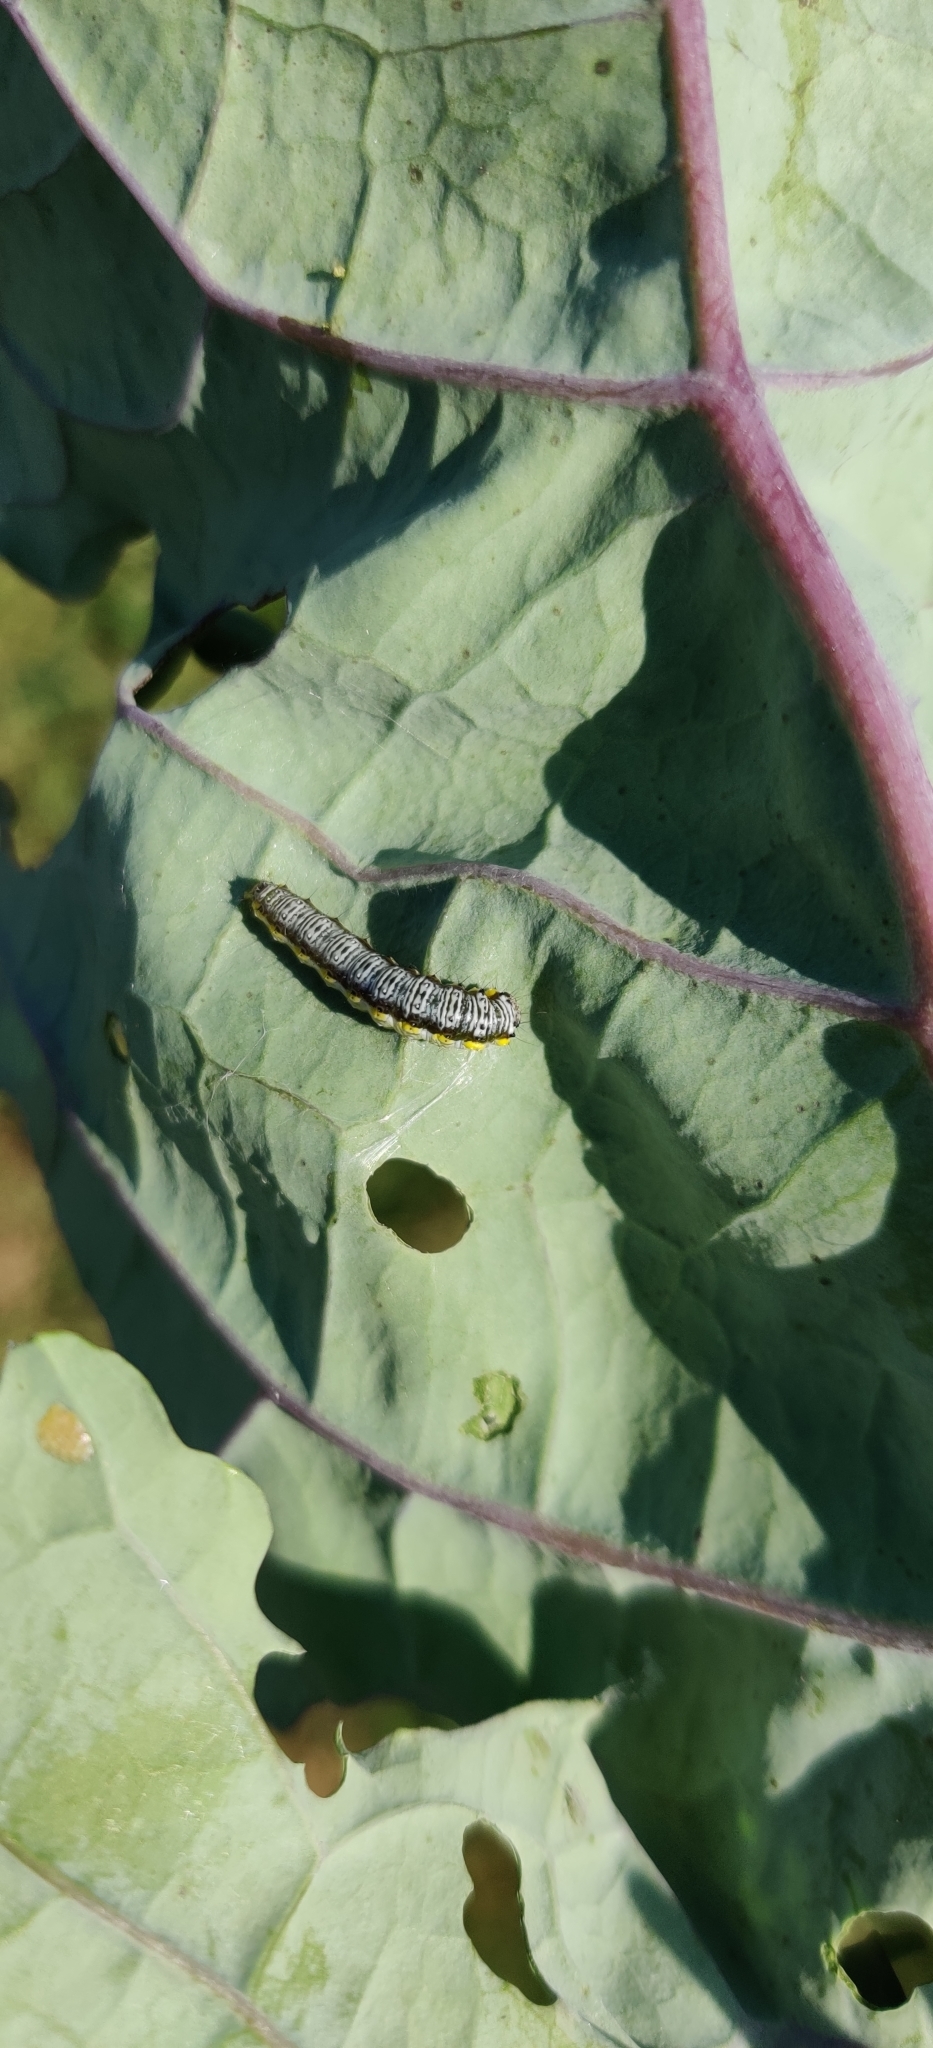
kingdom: Animalia
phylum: Arthropoda
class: Insecta
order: Lepidoptera
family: Crambidae
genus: Evergestis
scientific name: Evergestis rimosalis
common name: Cross-striped cabbageworm moth
